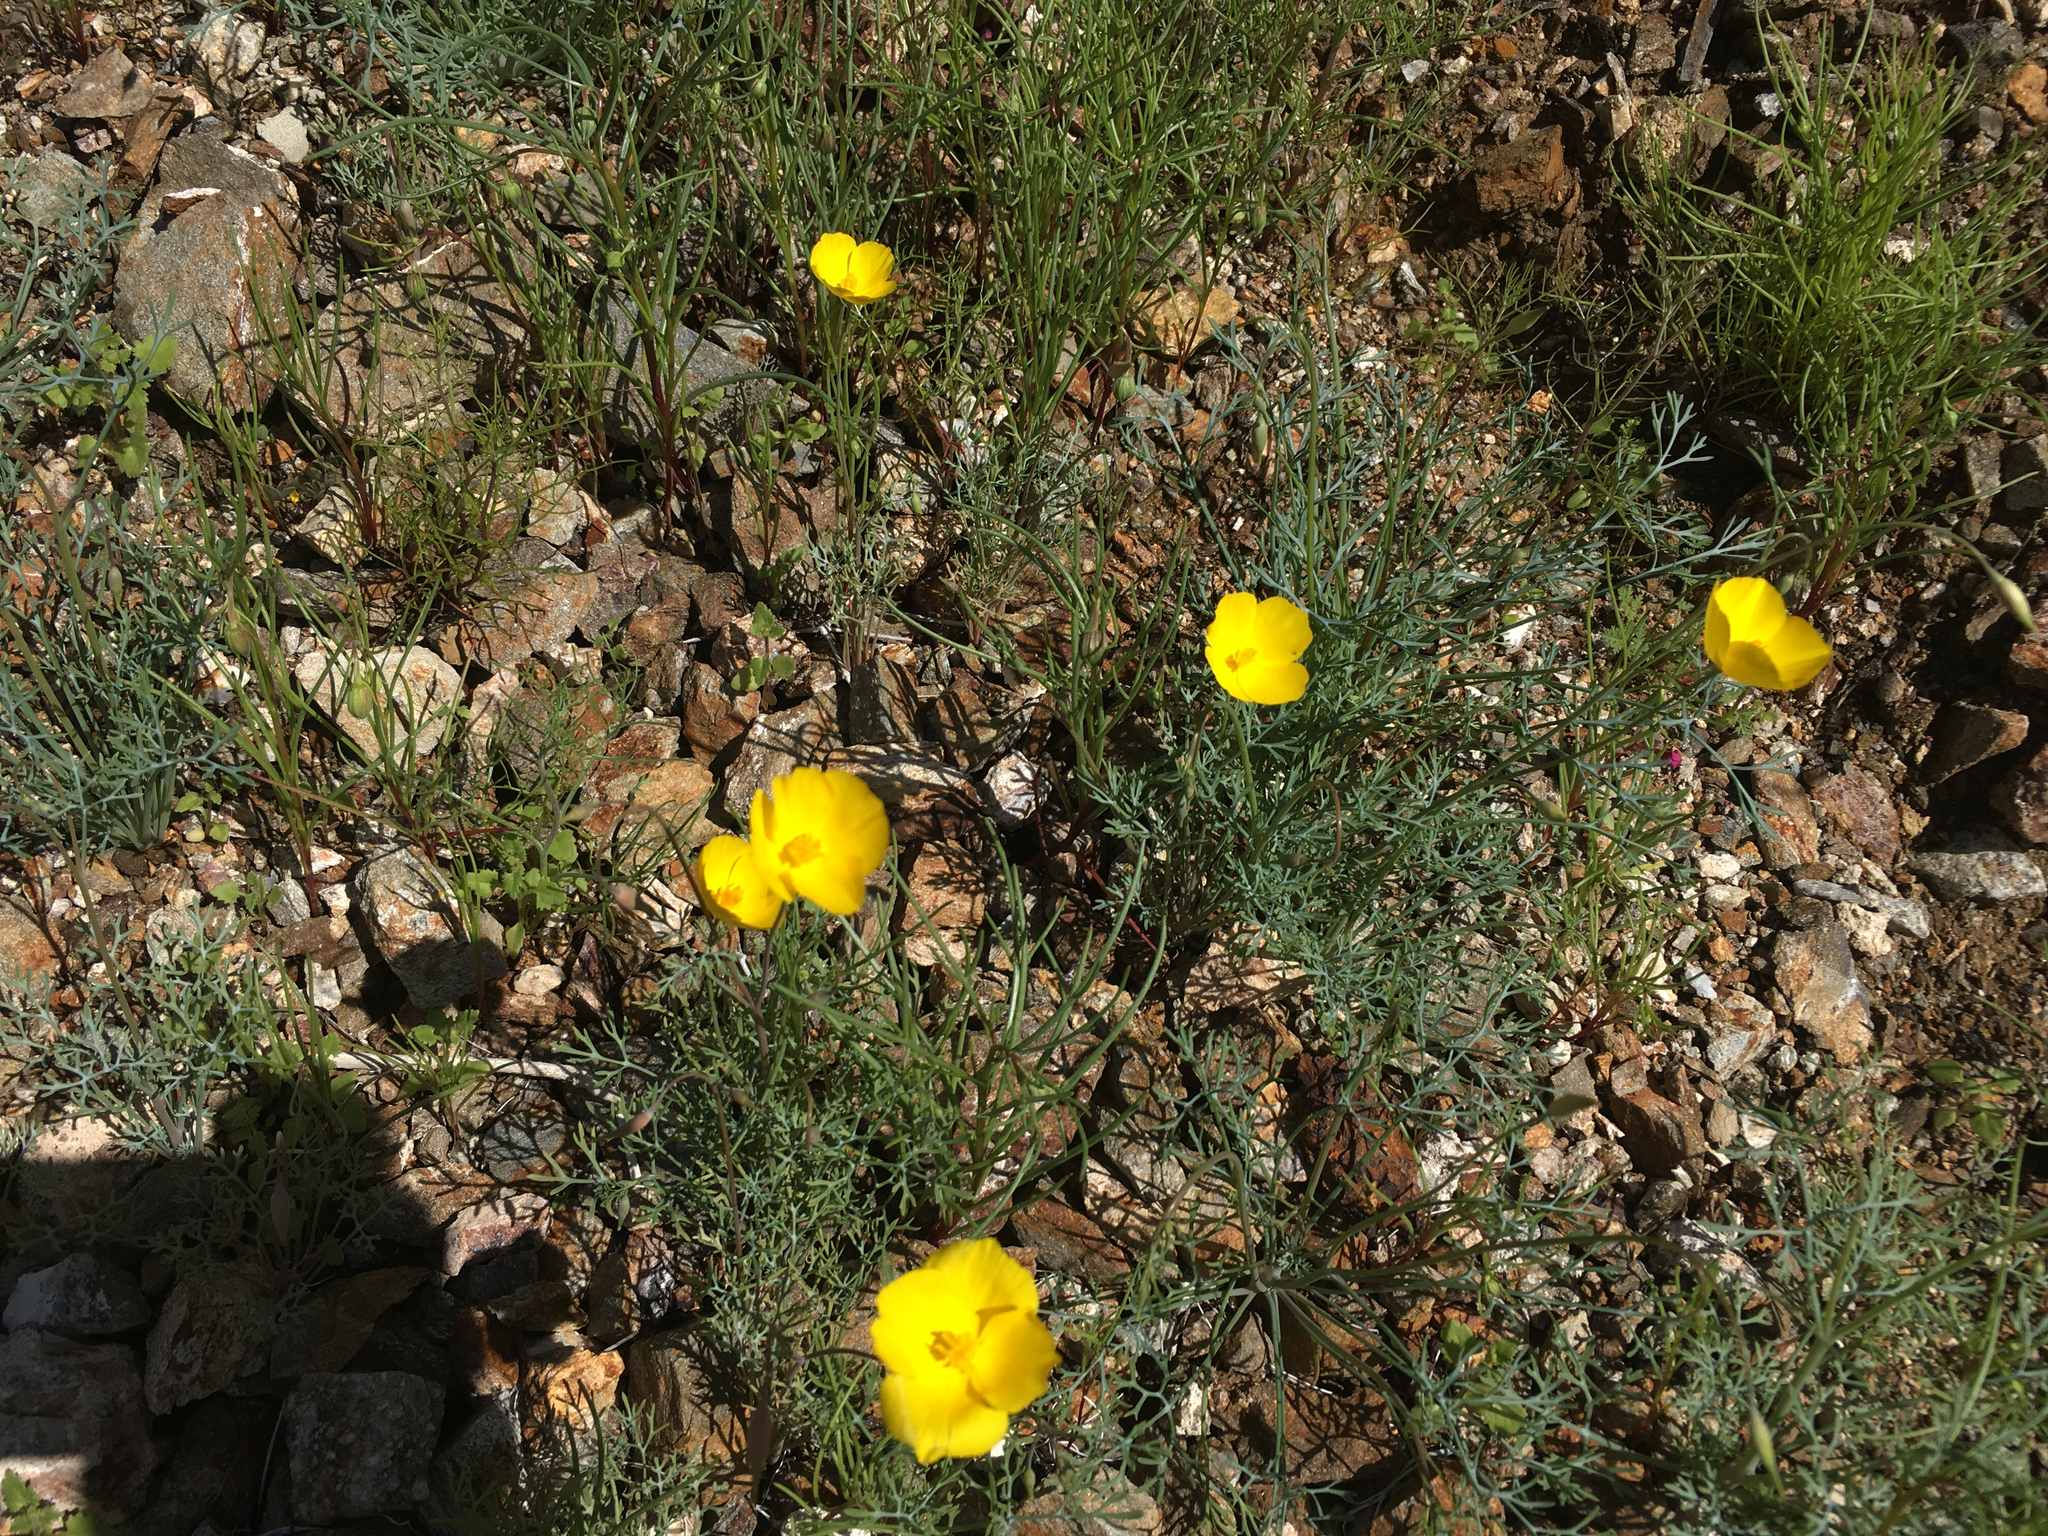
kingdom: Plantae
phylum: Tracheophyta
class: Magnoliopsida
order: Ranunculales
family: Papaveraceae
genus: Eschscholzia
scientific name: Eschscholzia parishii
